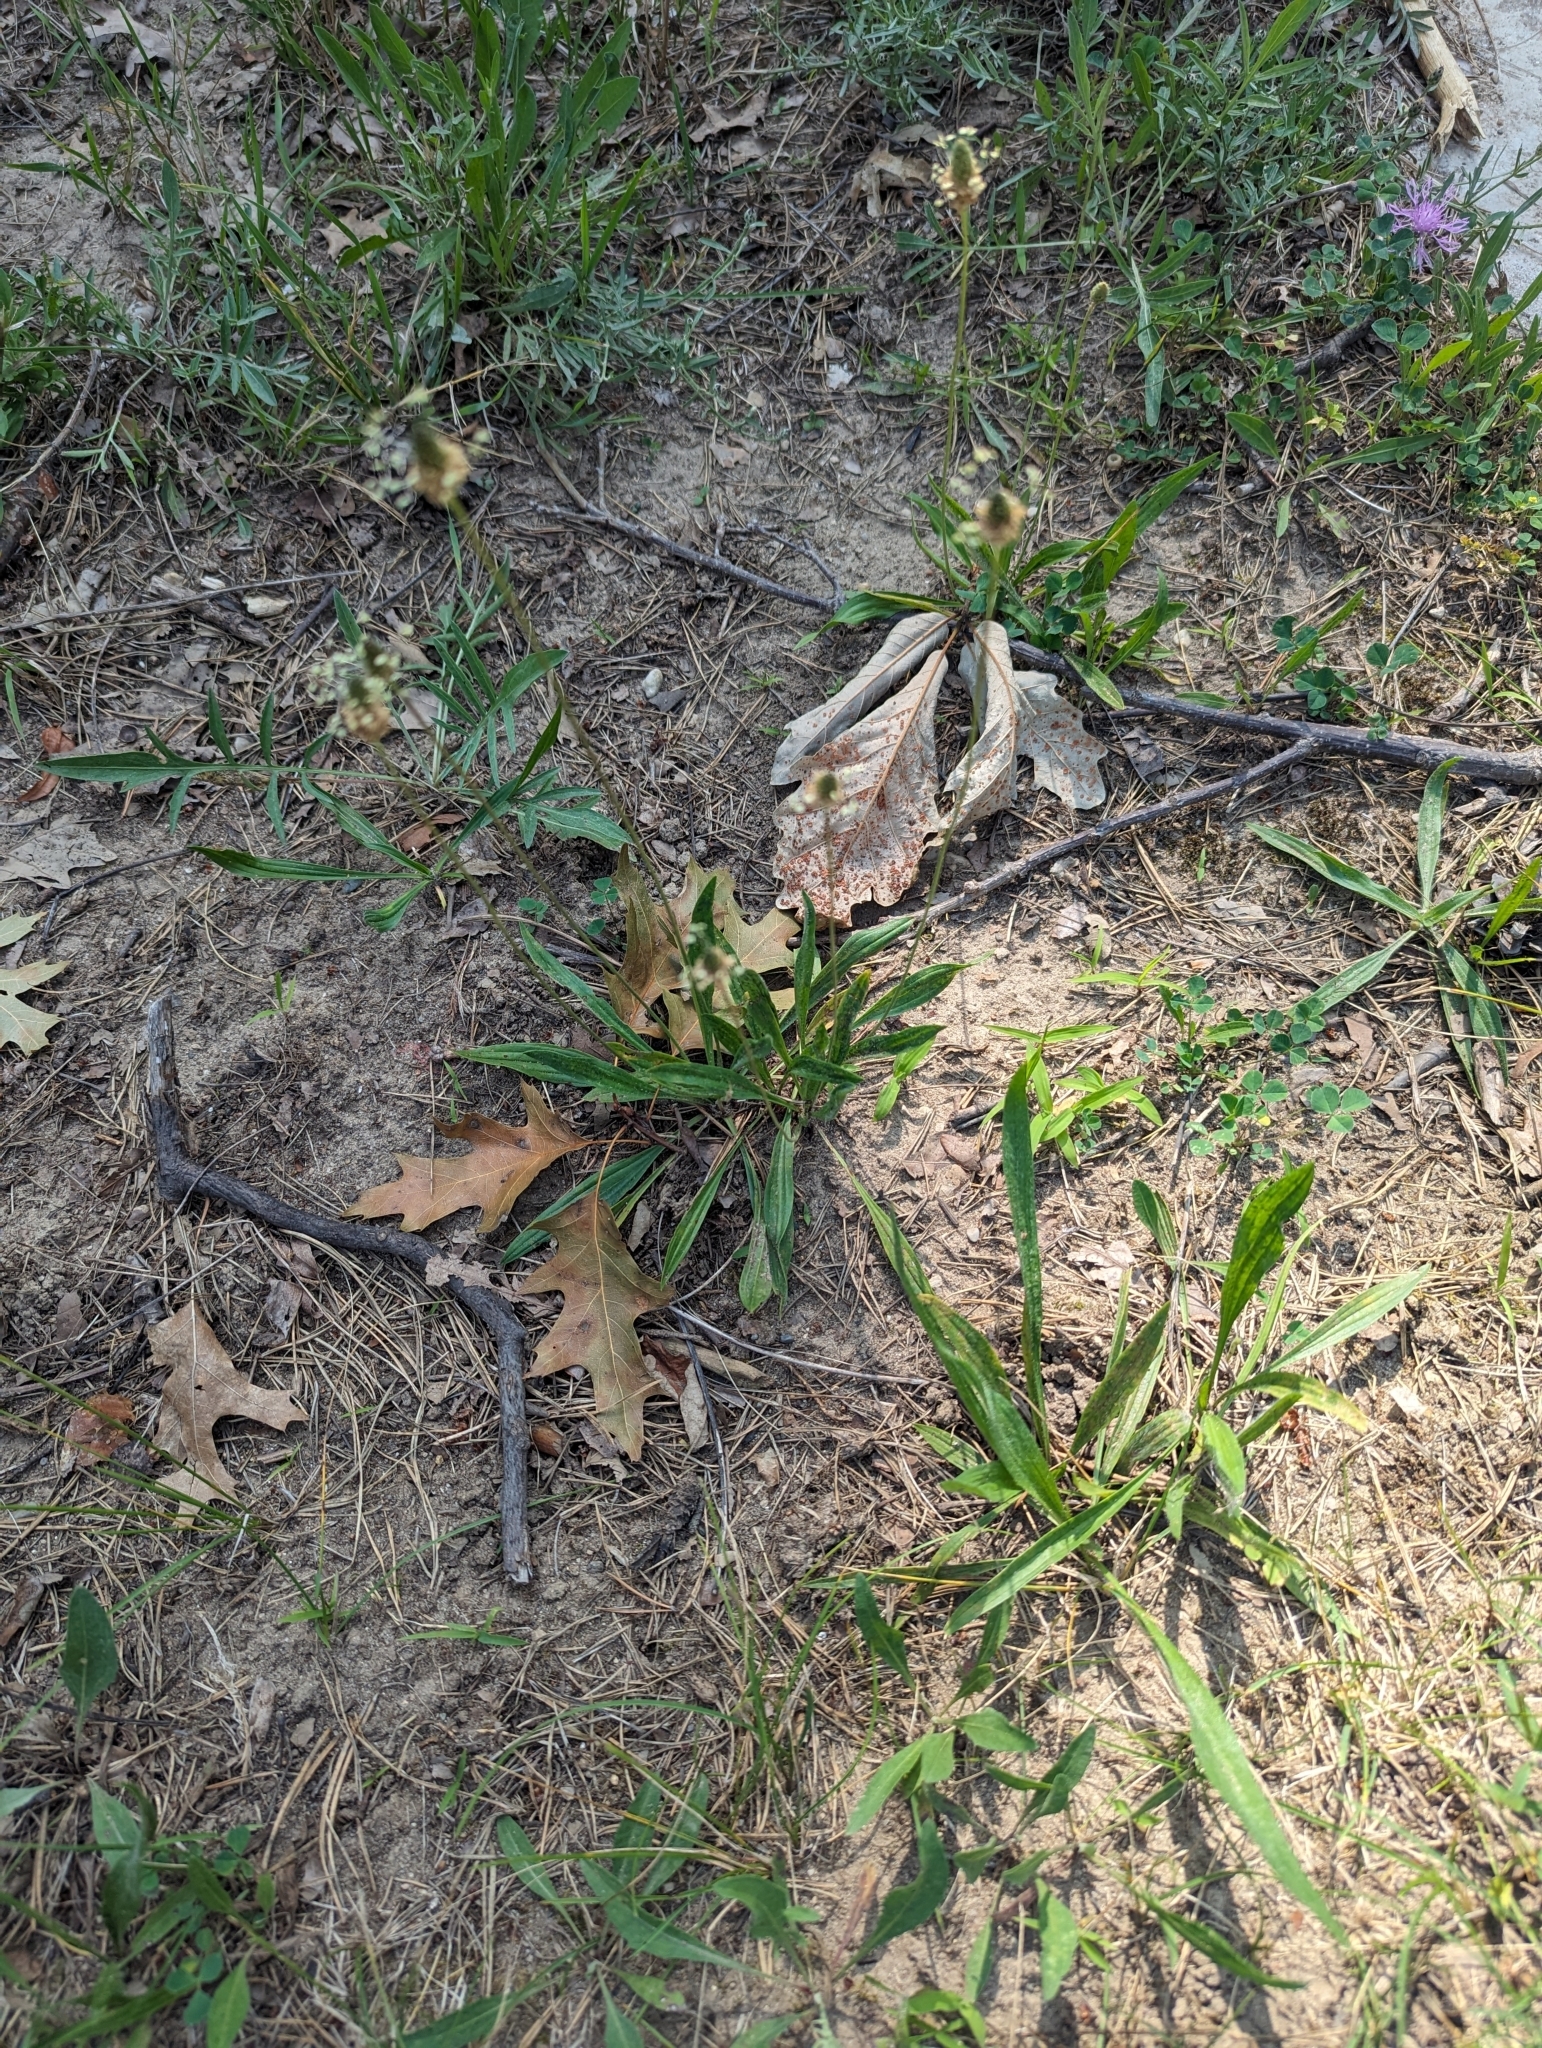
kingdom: Plantae
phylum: Tracheophyta
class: Magnoliopsida
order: Lamiales
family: Plantaginaceae
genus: Plantago
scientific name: Plantago lanceolata
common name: Ribwort plantain
